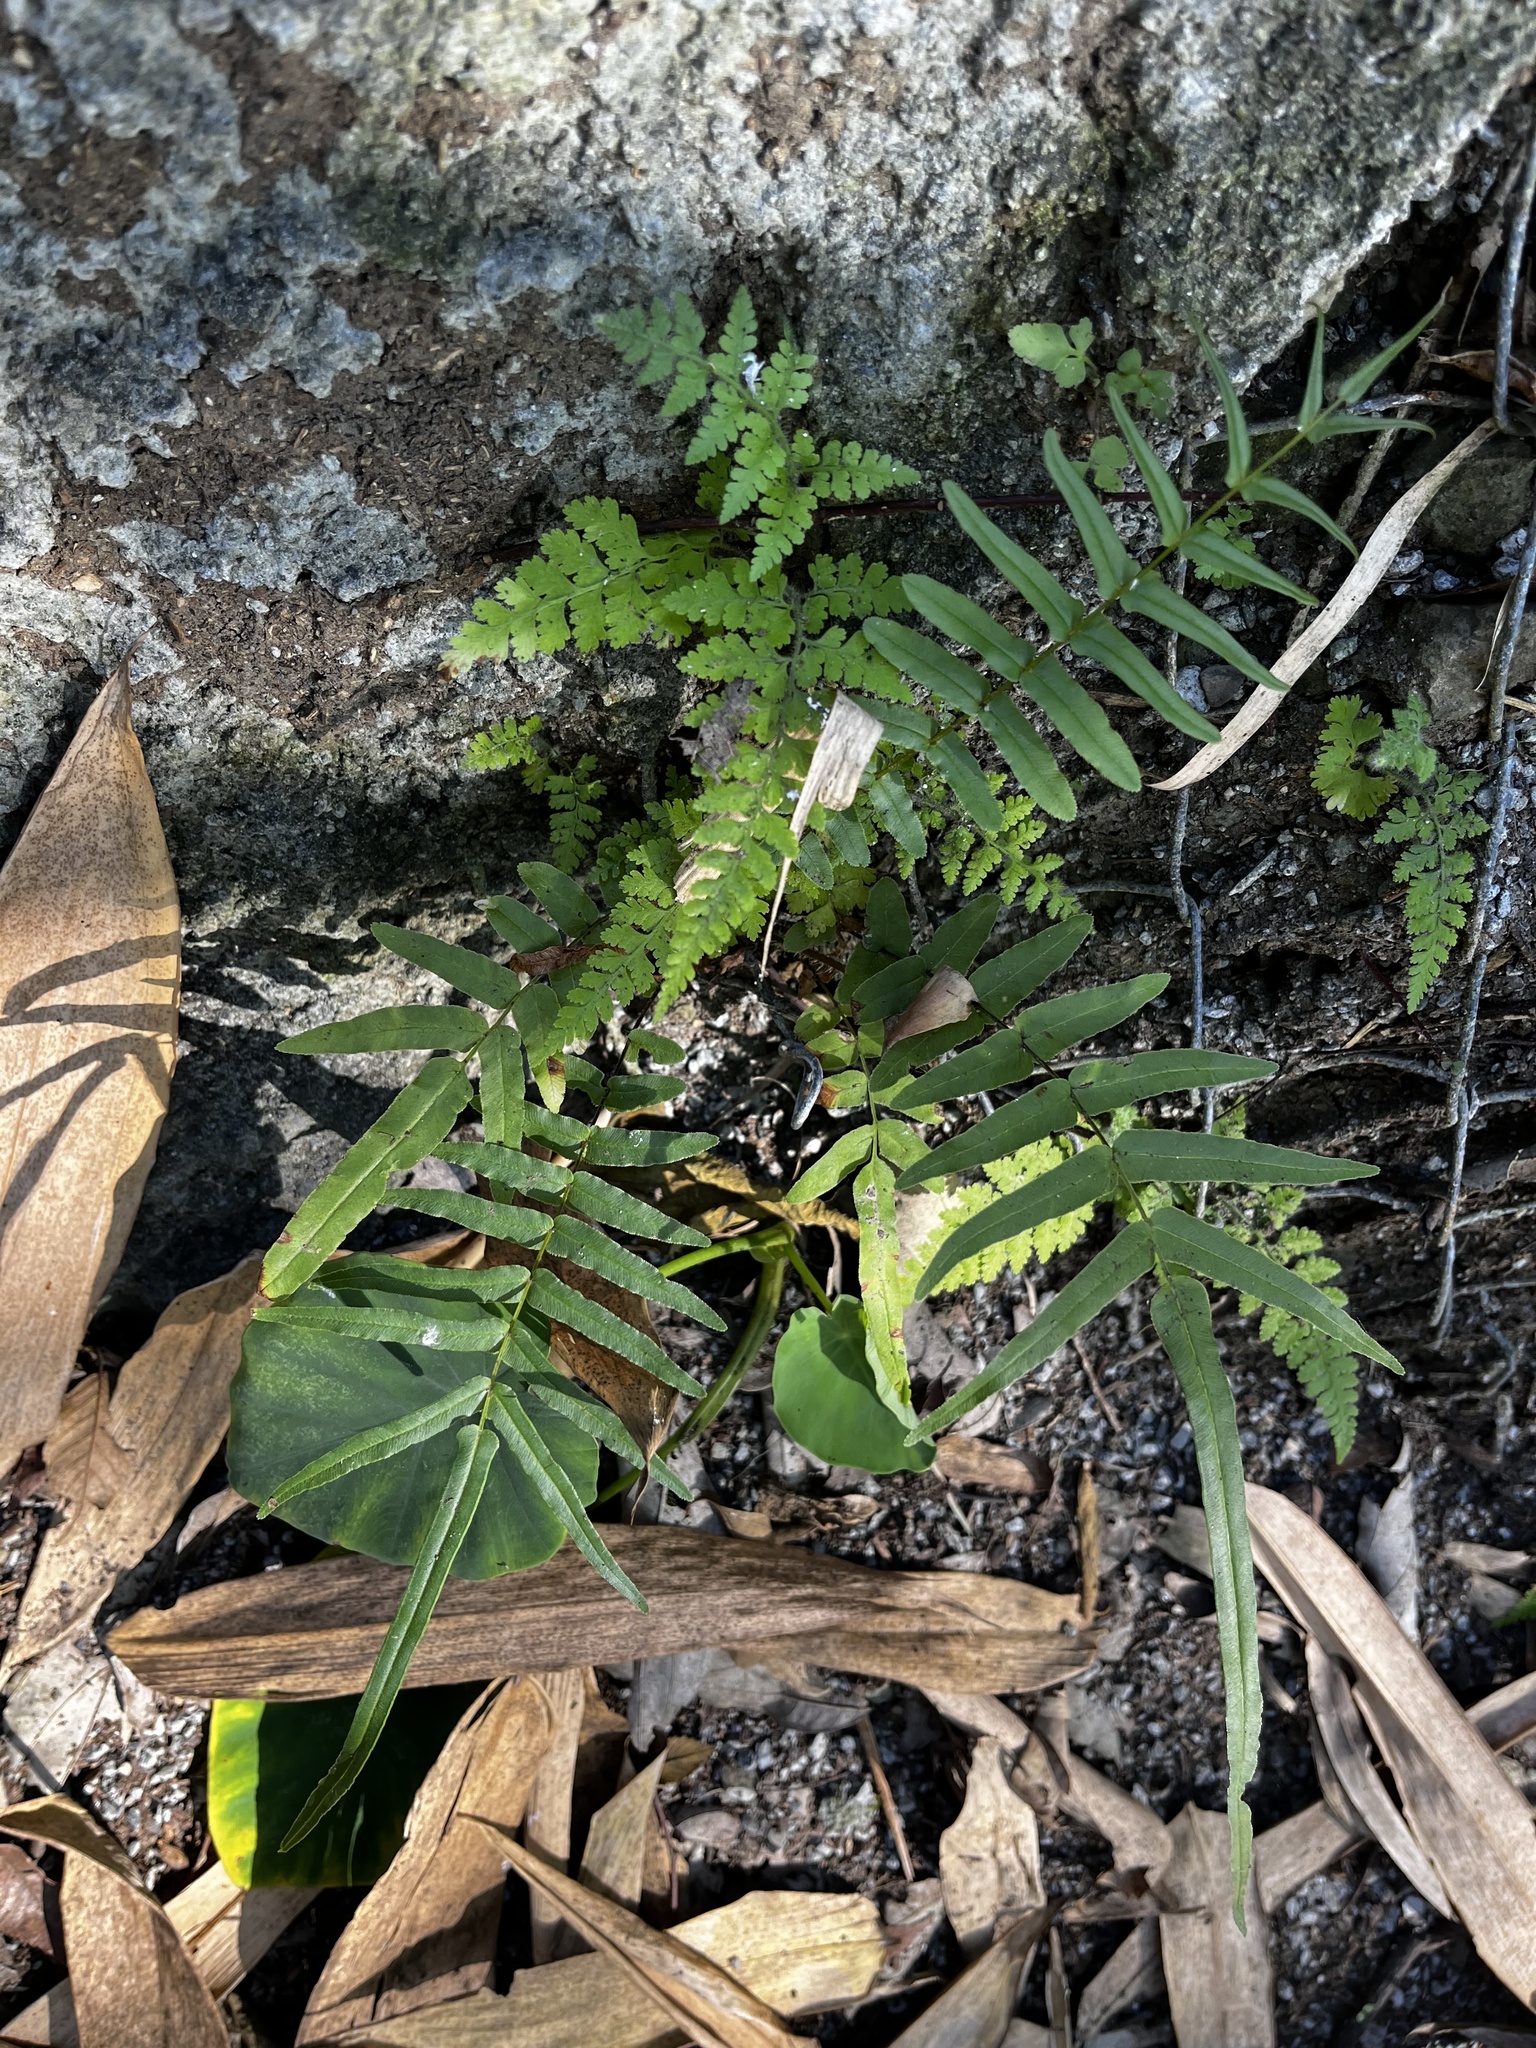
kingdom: Plantae
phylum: Tracheophyta
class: Polypodiopsida
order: Polypodiales
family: Pteridaceae
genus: Pteris
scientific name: Pteris vittata
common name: Ladder brake
